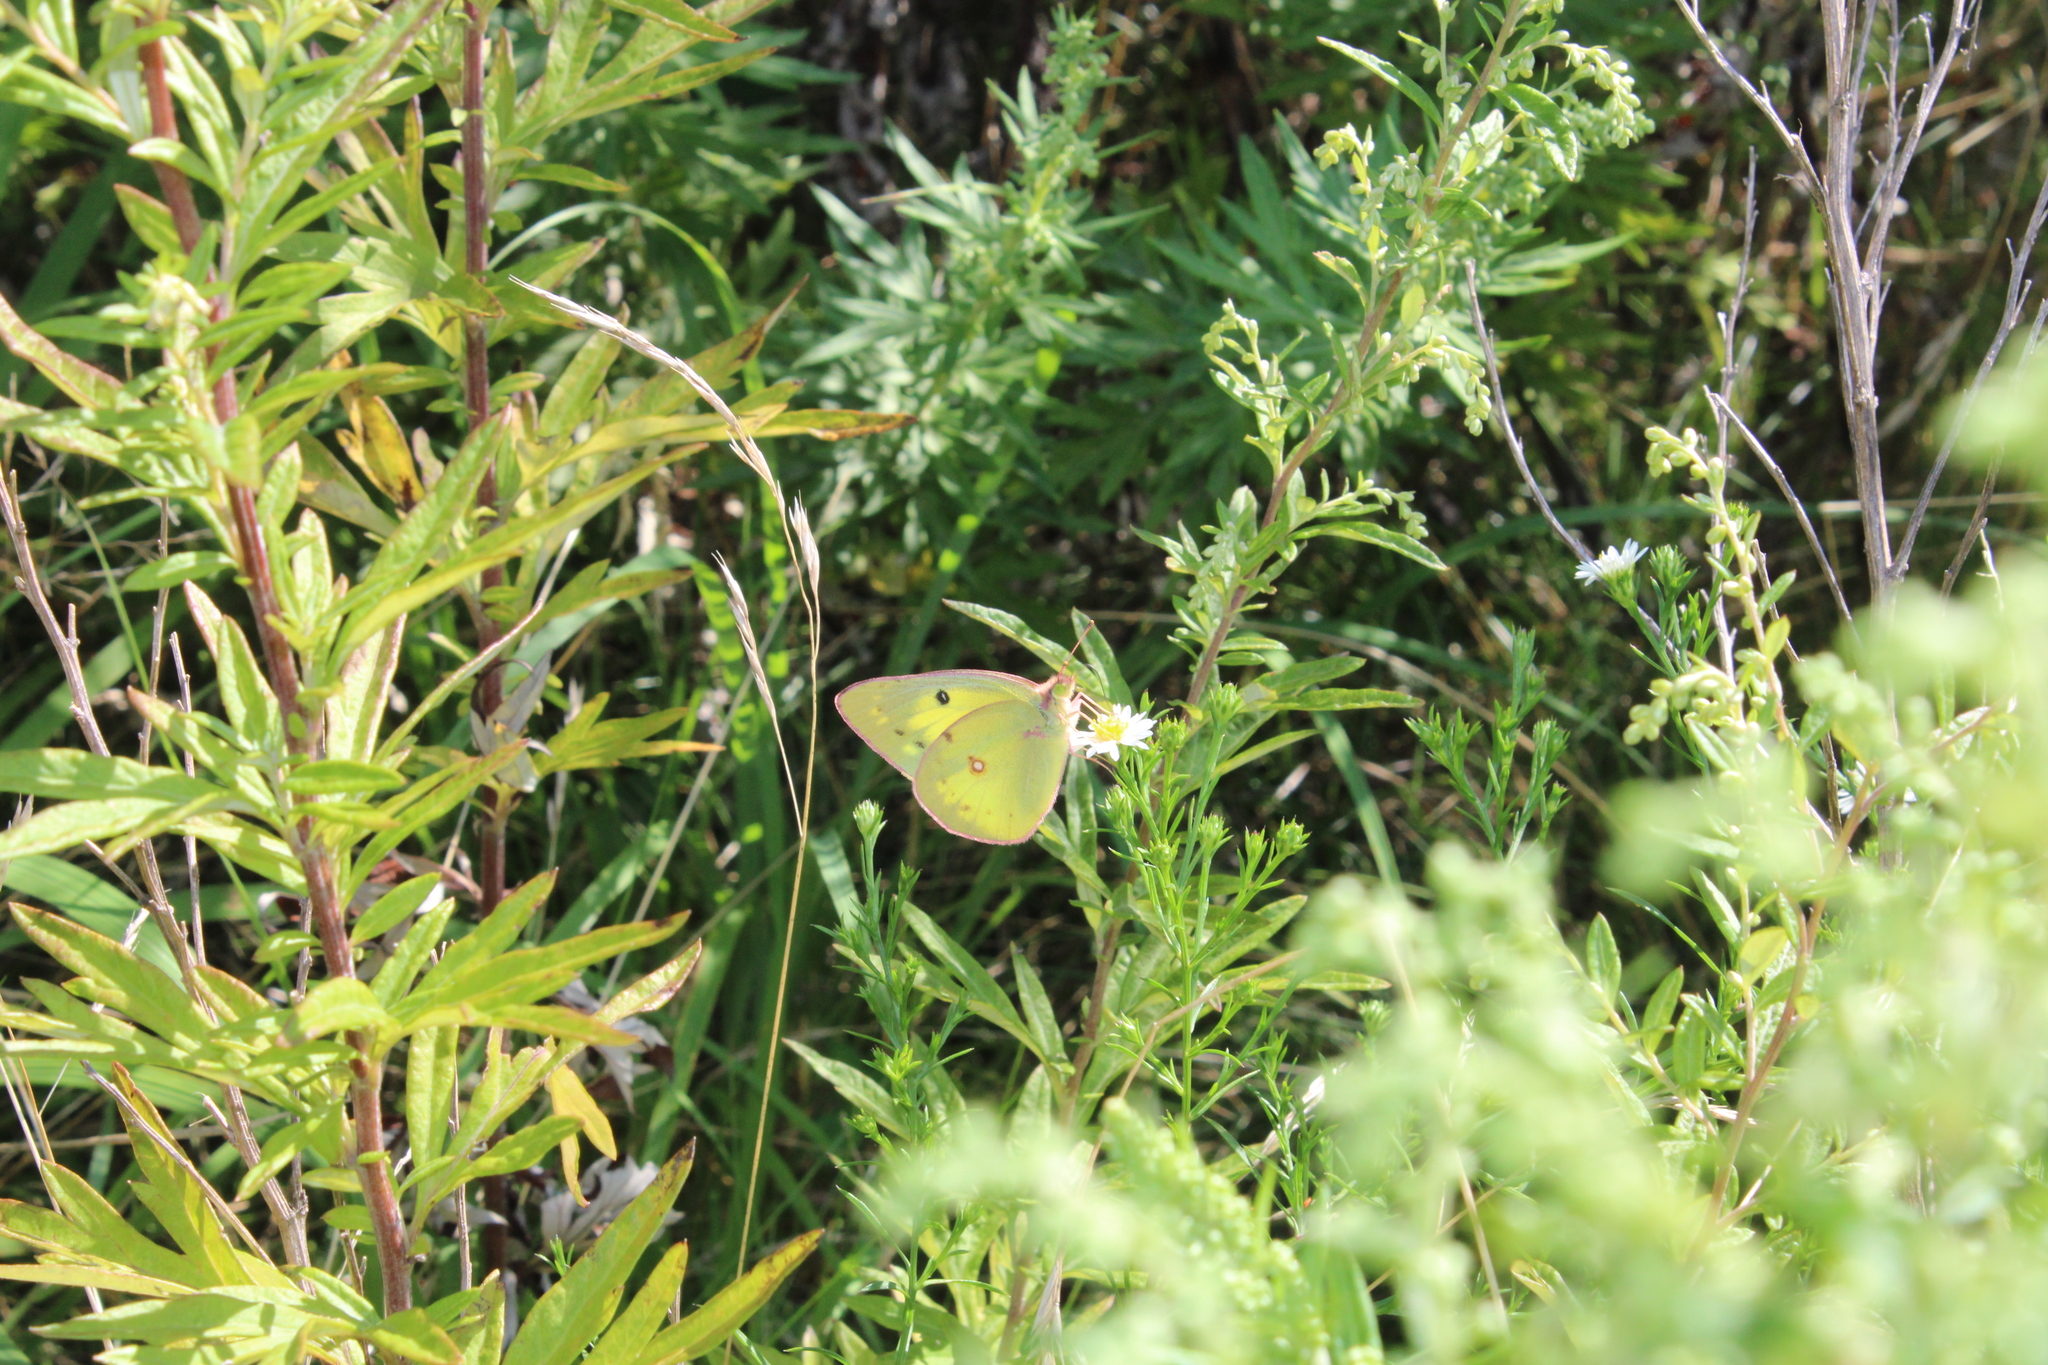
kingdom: Animalia
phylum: Arthropoda
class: Insecta
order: Lepidoptera
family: Pieridae
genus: Colias
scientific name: Colias philodice
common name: Clouded sulphur
